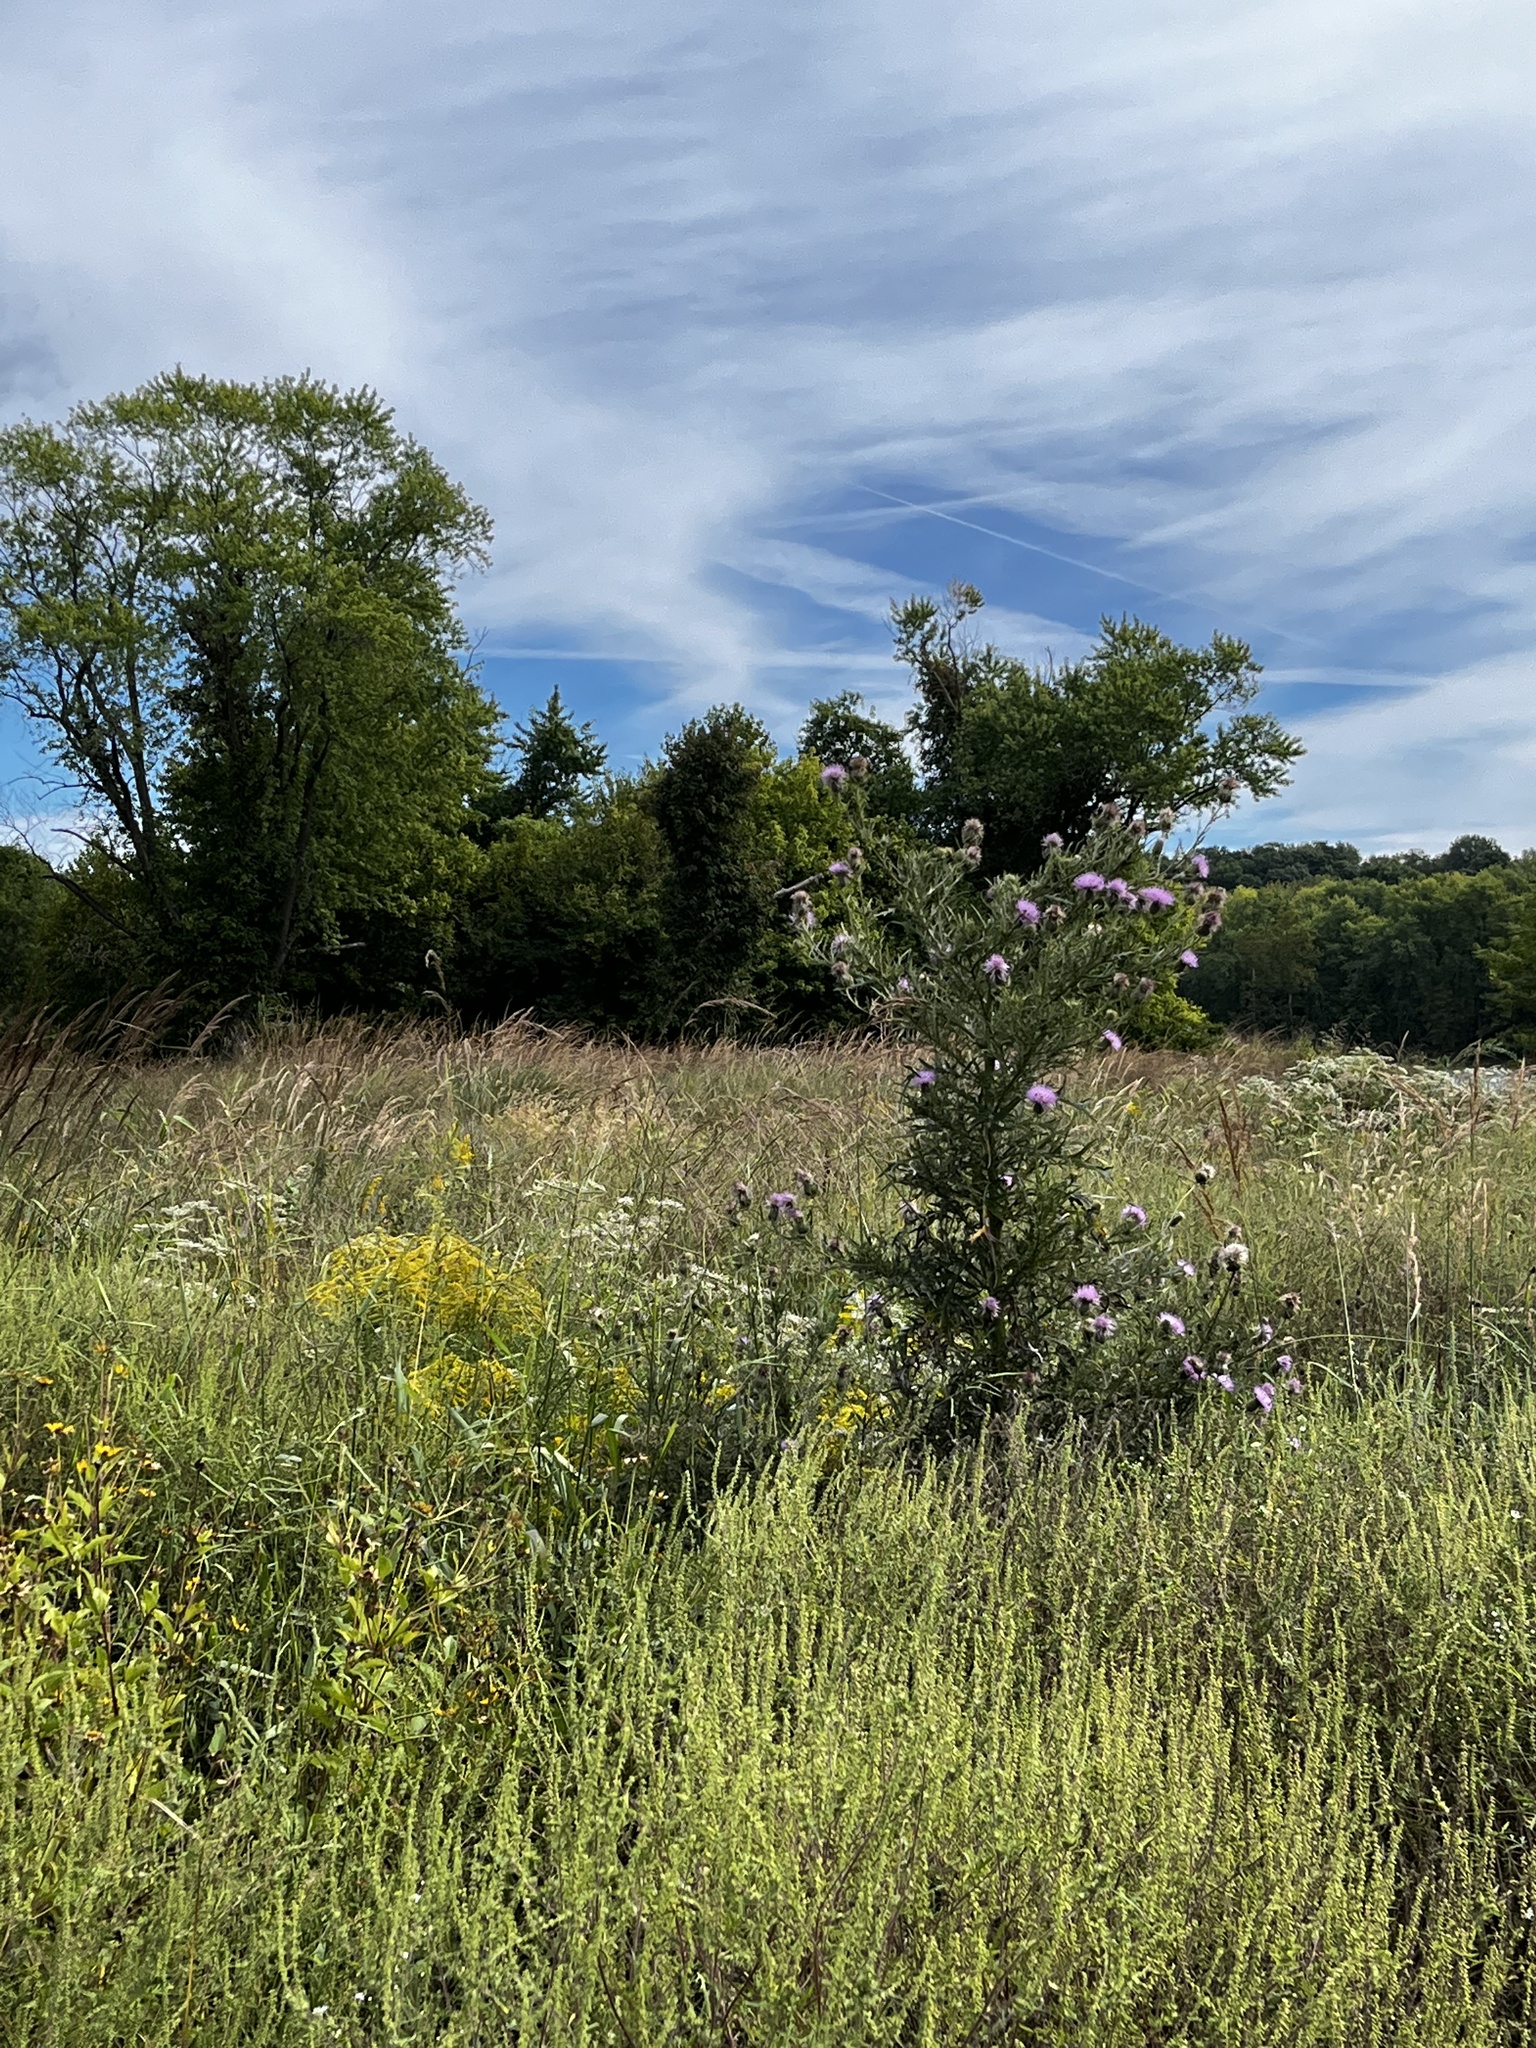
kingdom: Plantae
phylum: Tracheophyta
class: Magnoliopsida
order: Asterales
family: Asteraceae
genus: Cirsium
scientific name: Cirsium discolor
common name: Field thistle
